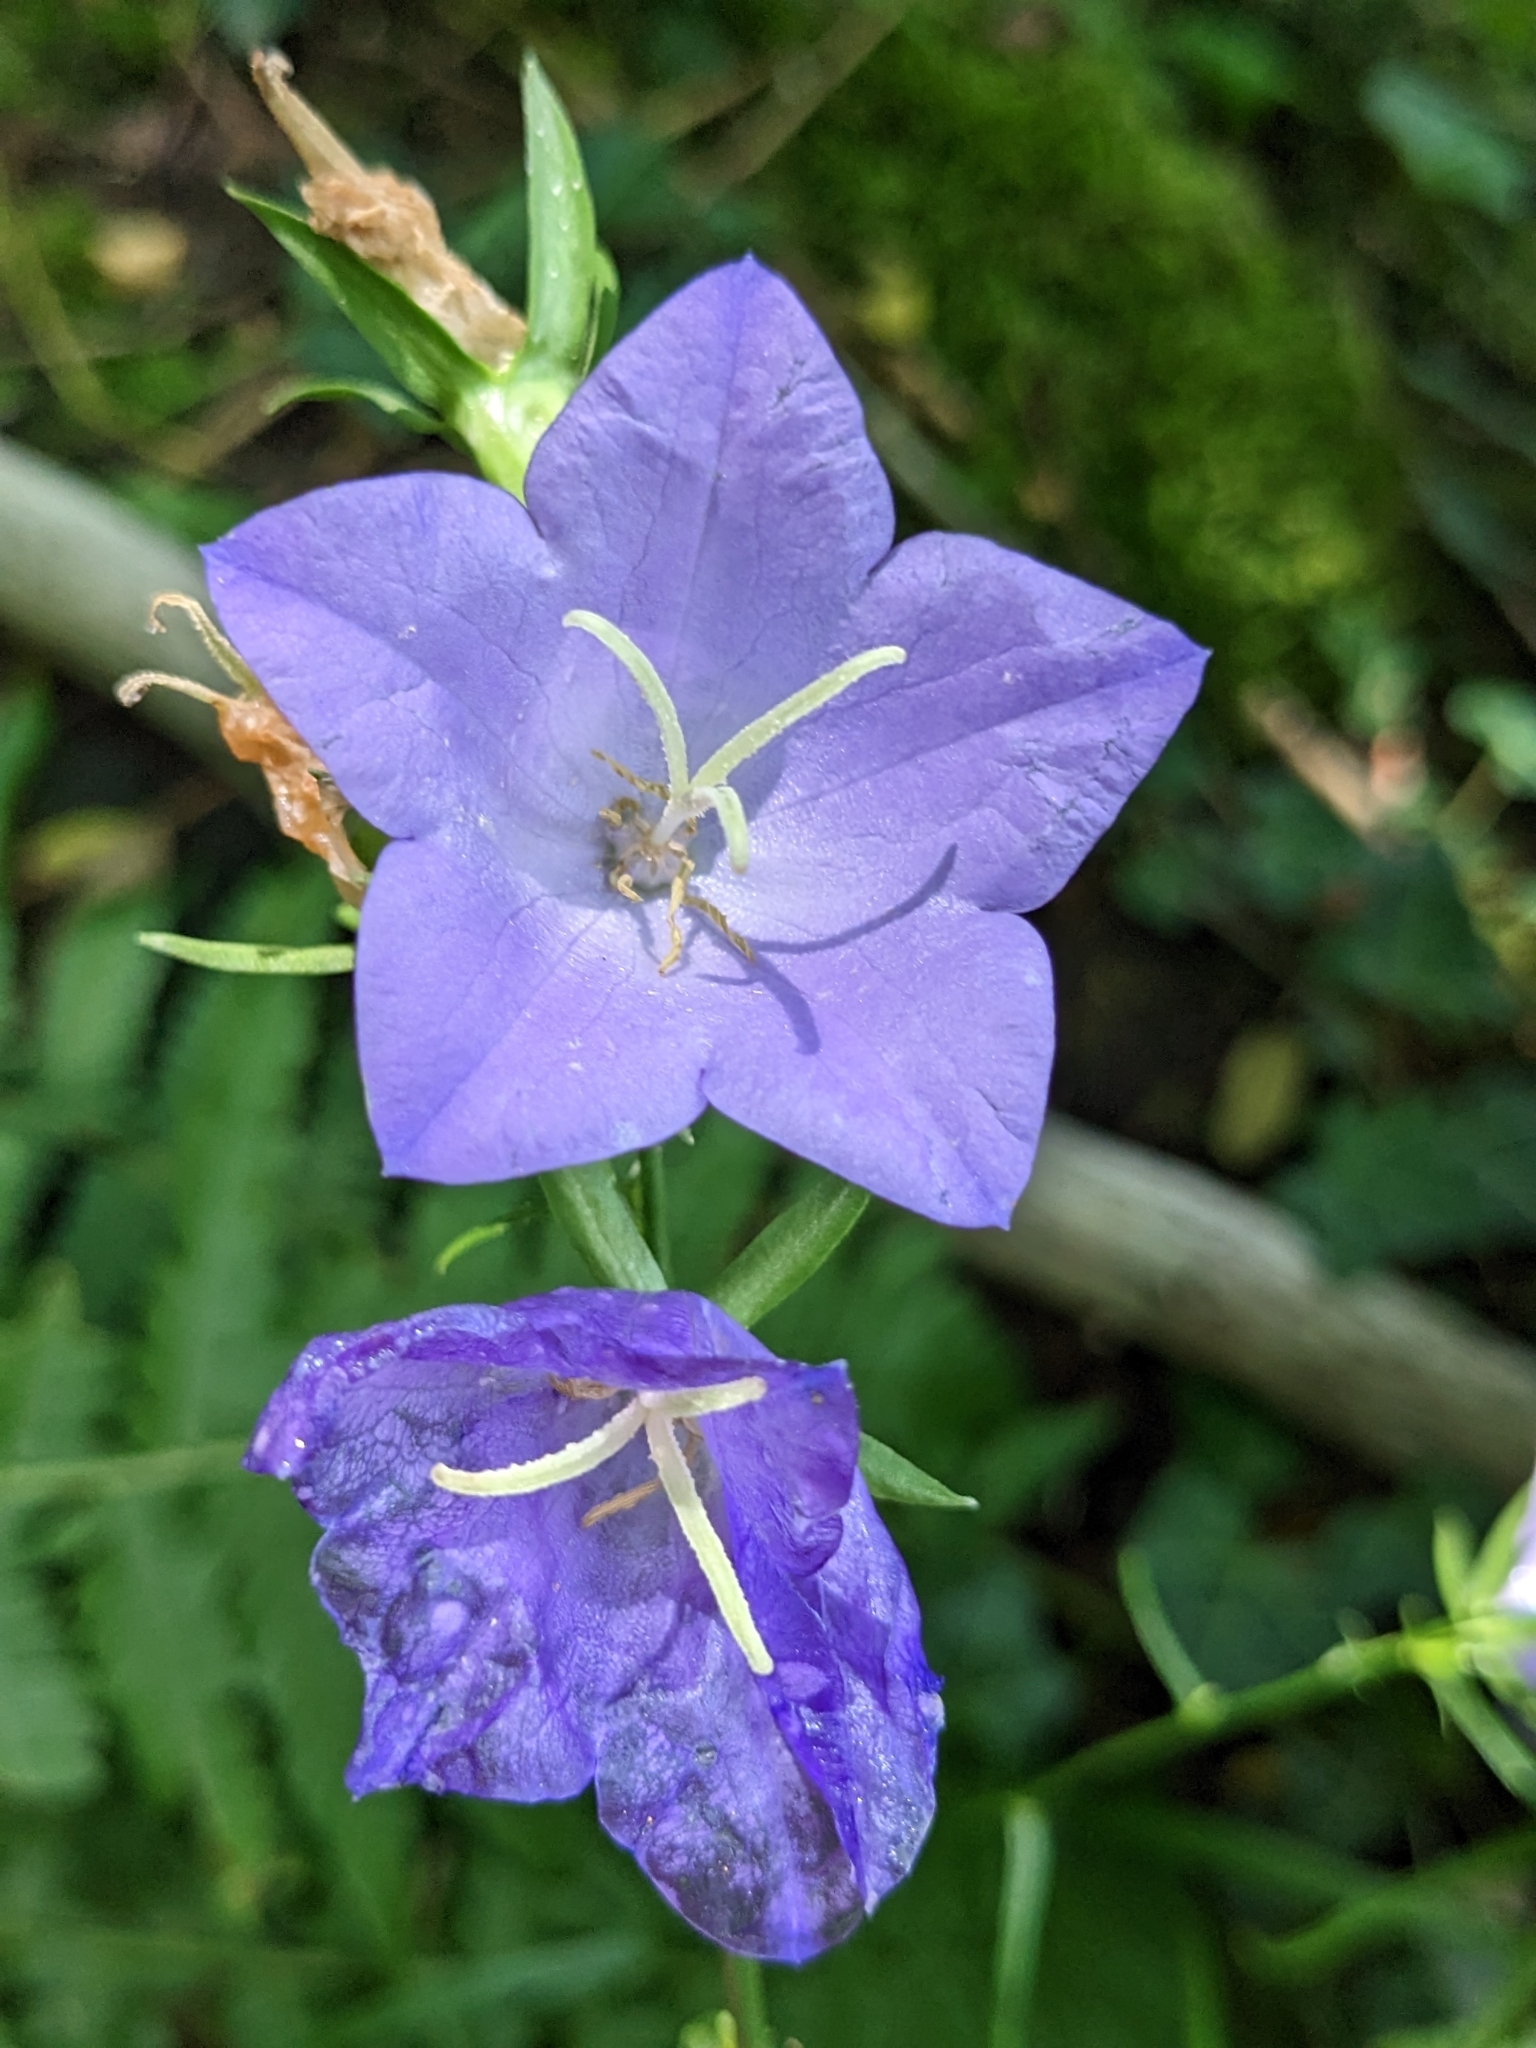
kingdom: Plantae
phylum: Tracheophyta
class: Magnoliopsida
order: Asterales
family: Campanulaceae
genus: Campanula
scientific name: Campanula persicifolia
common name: Peach-leaved bellflower
